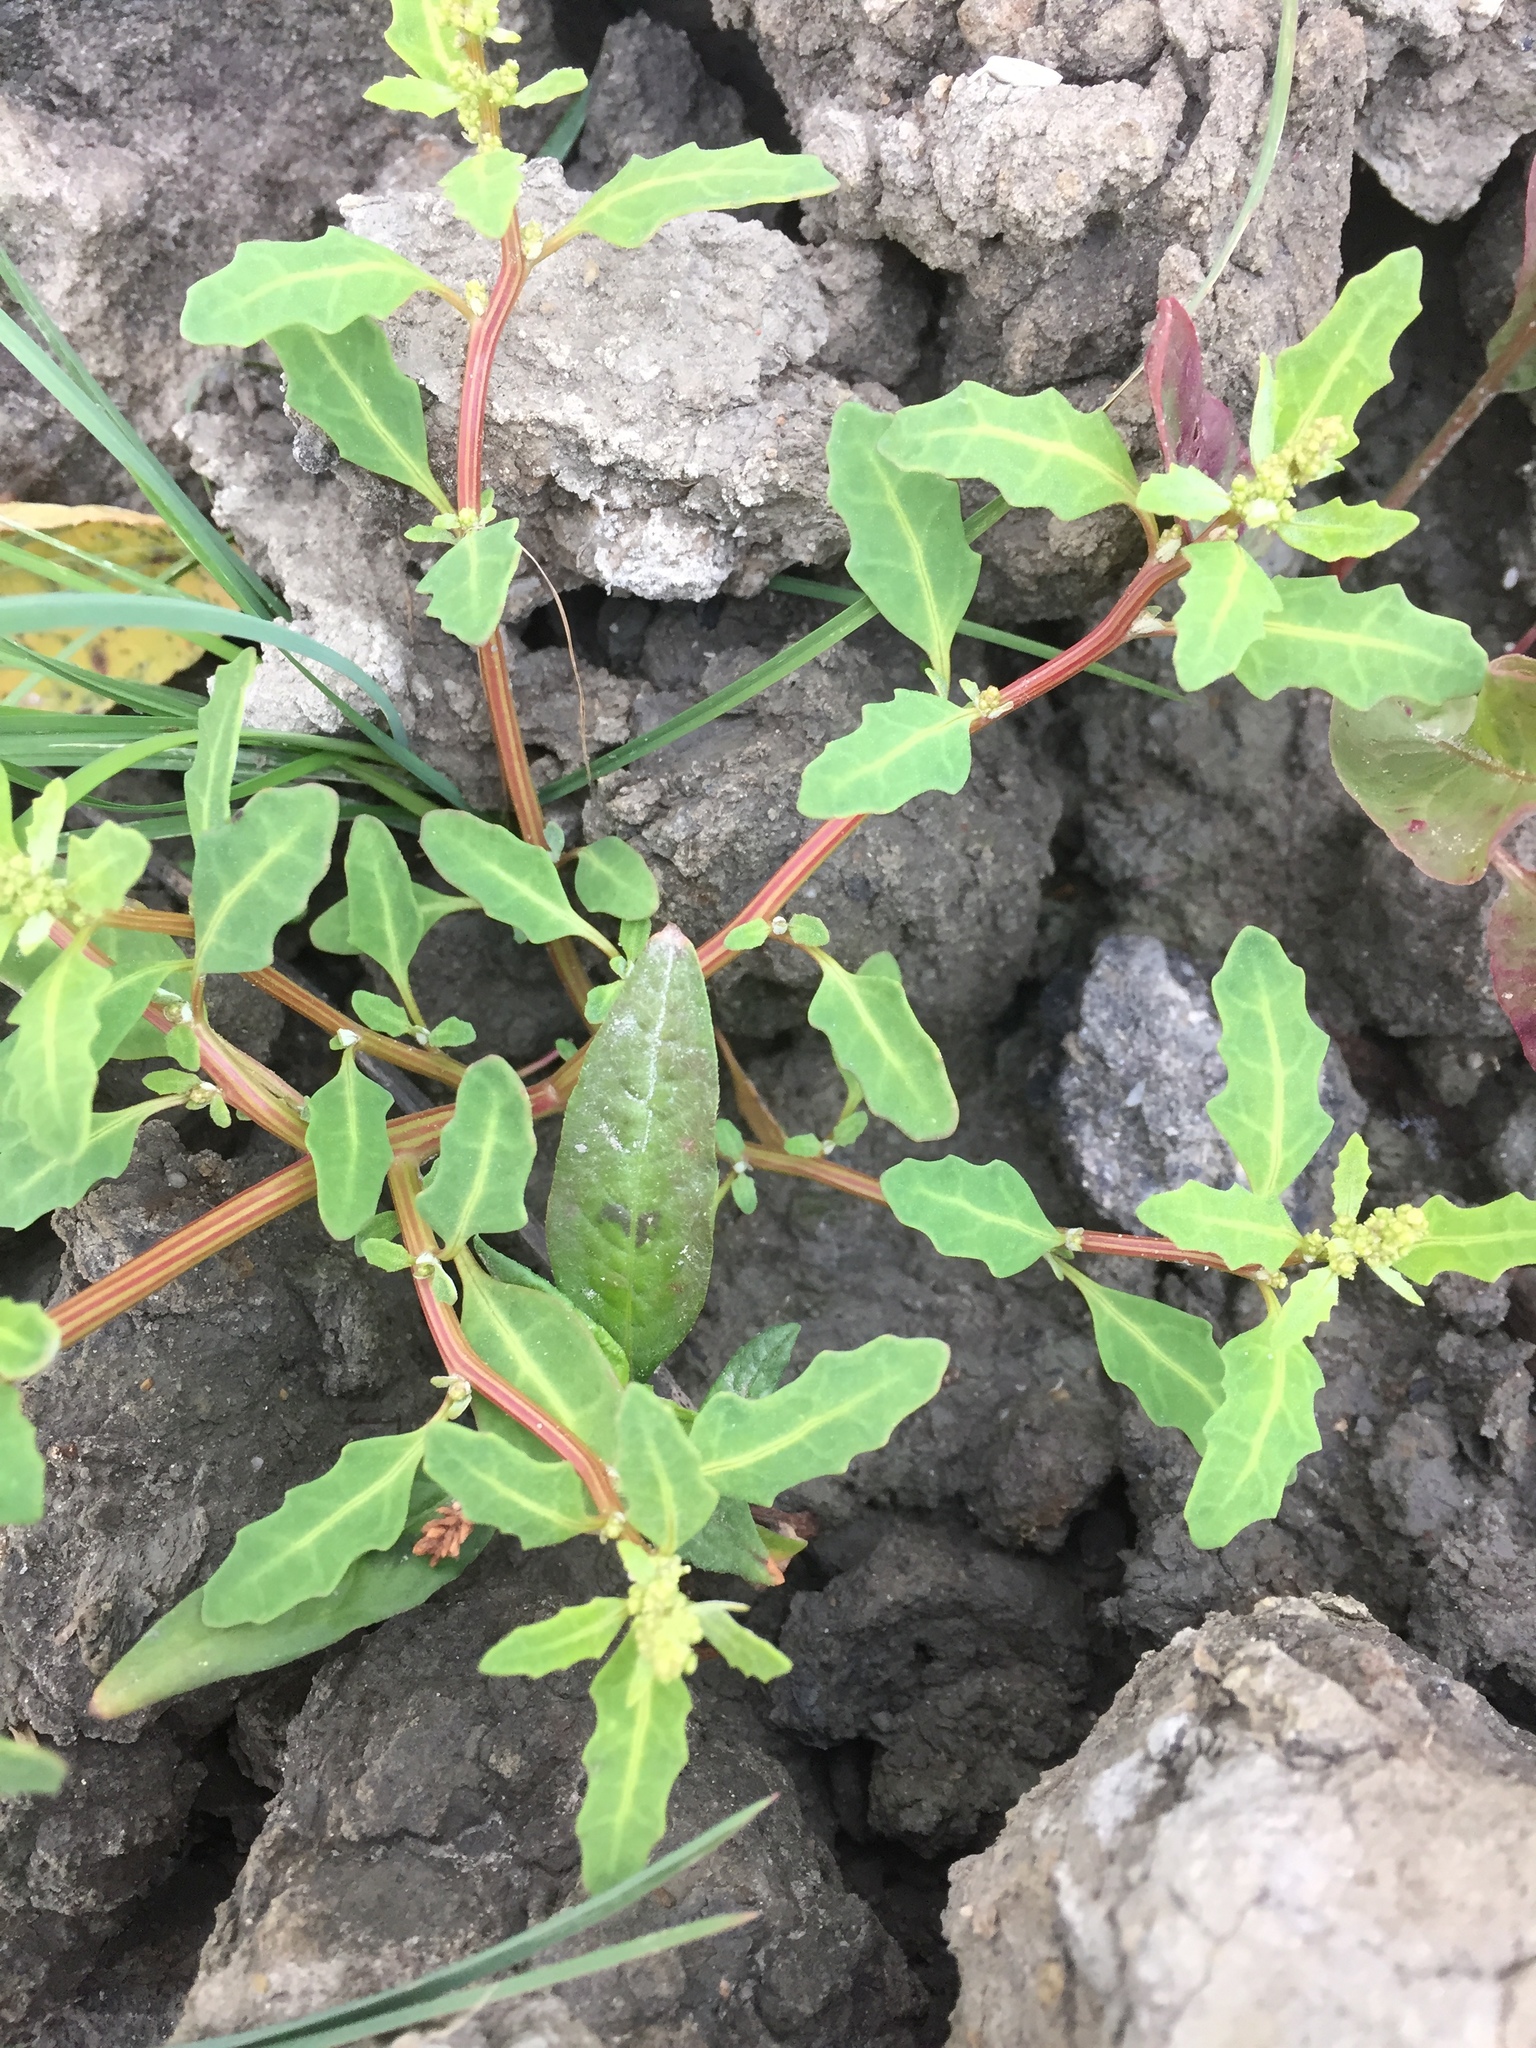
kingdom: Plantae
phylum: Tracheophyta
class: Magnoliopsida
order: Caryophyllales
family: Amaranthaceae
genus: Oxybasis
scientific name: Oxybasis glauca
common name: Glaucous goosefoot
